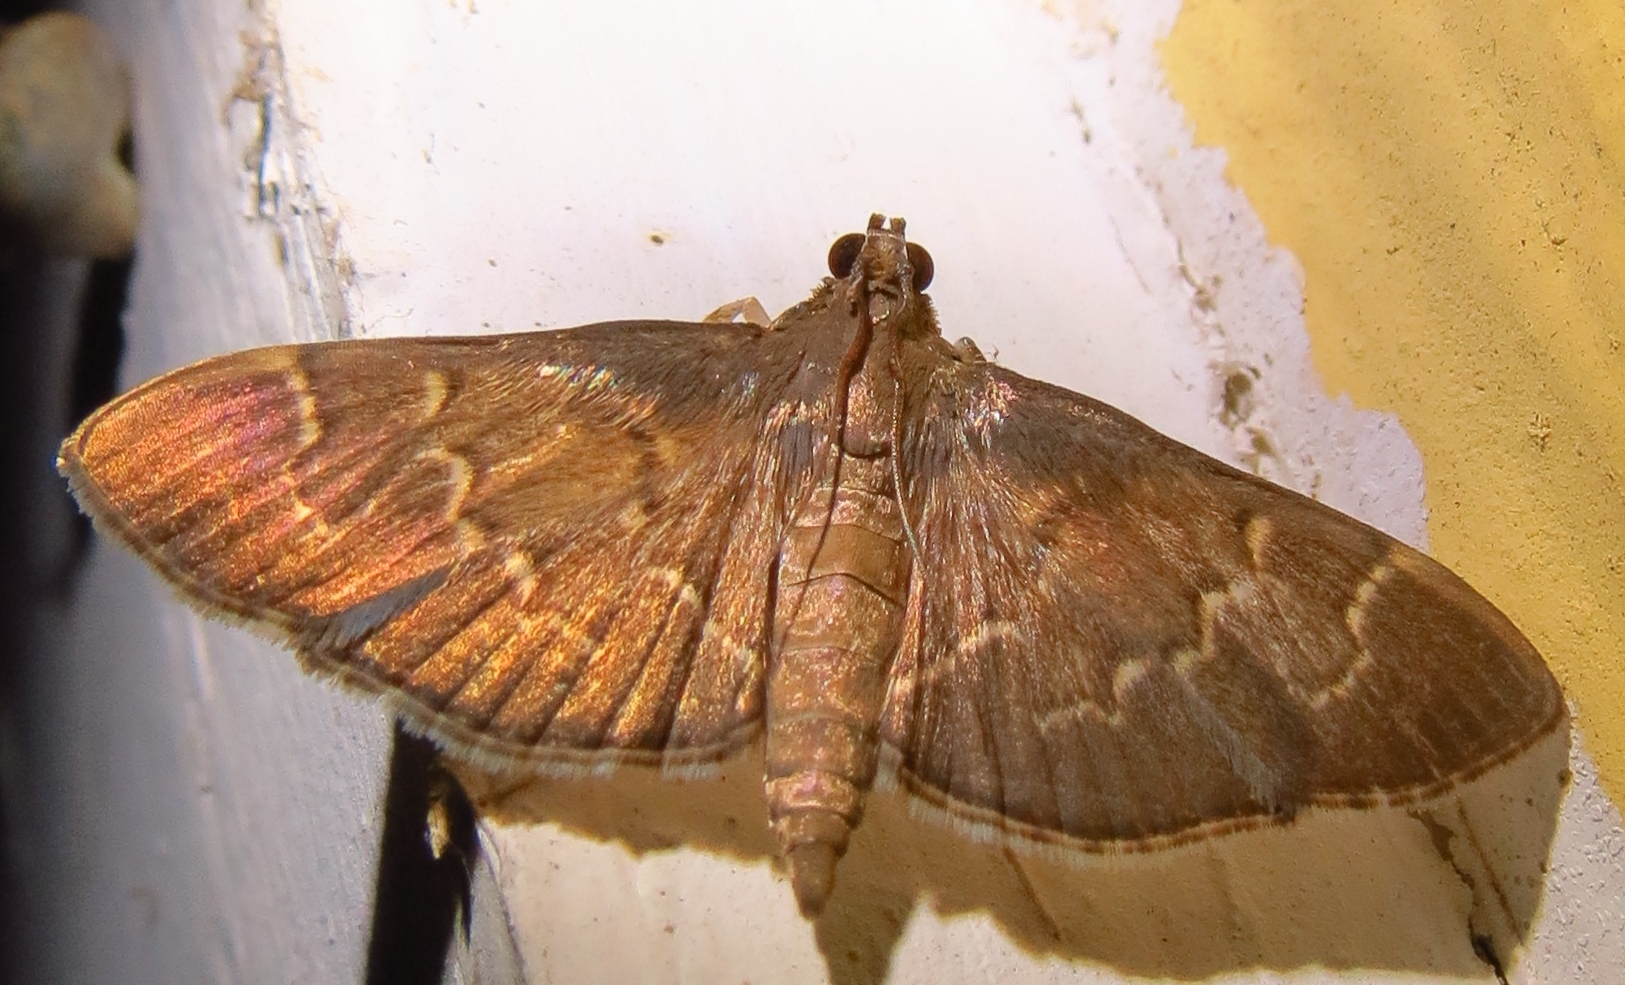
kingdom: Animalia
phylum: Arthropoda
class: Insecta
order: Lepidoptera
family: Crambidae
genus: Pilocrocis
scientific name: Pilocrocis ramentalis
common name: Scraped pilocrocis
